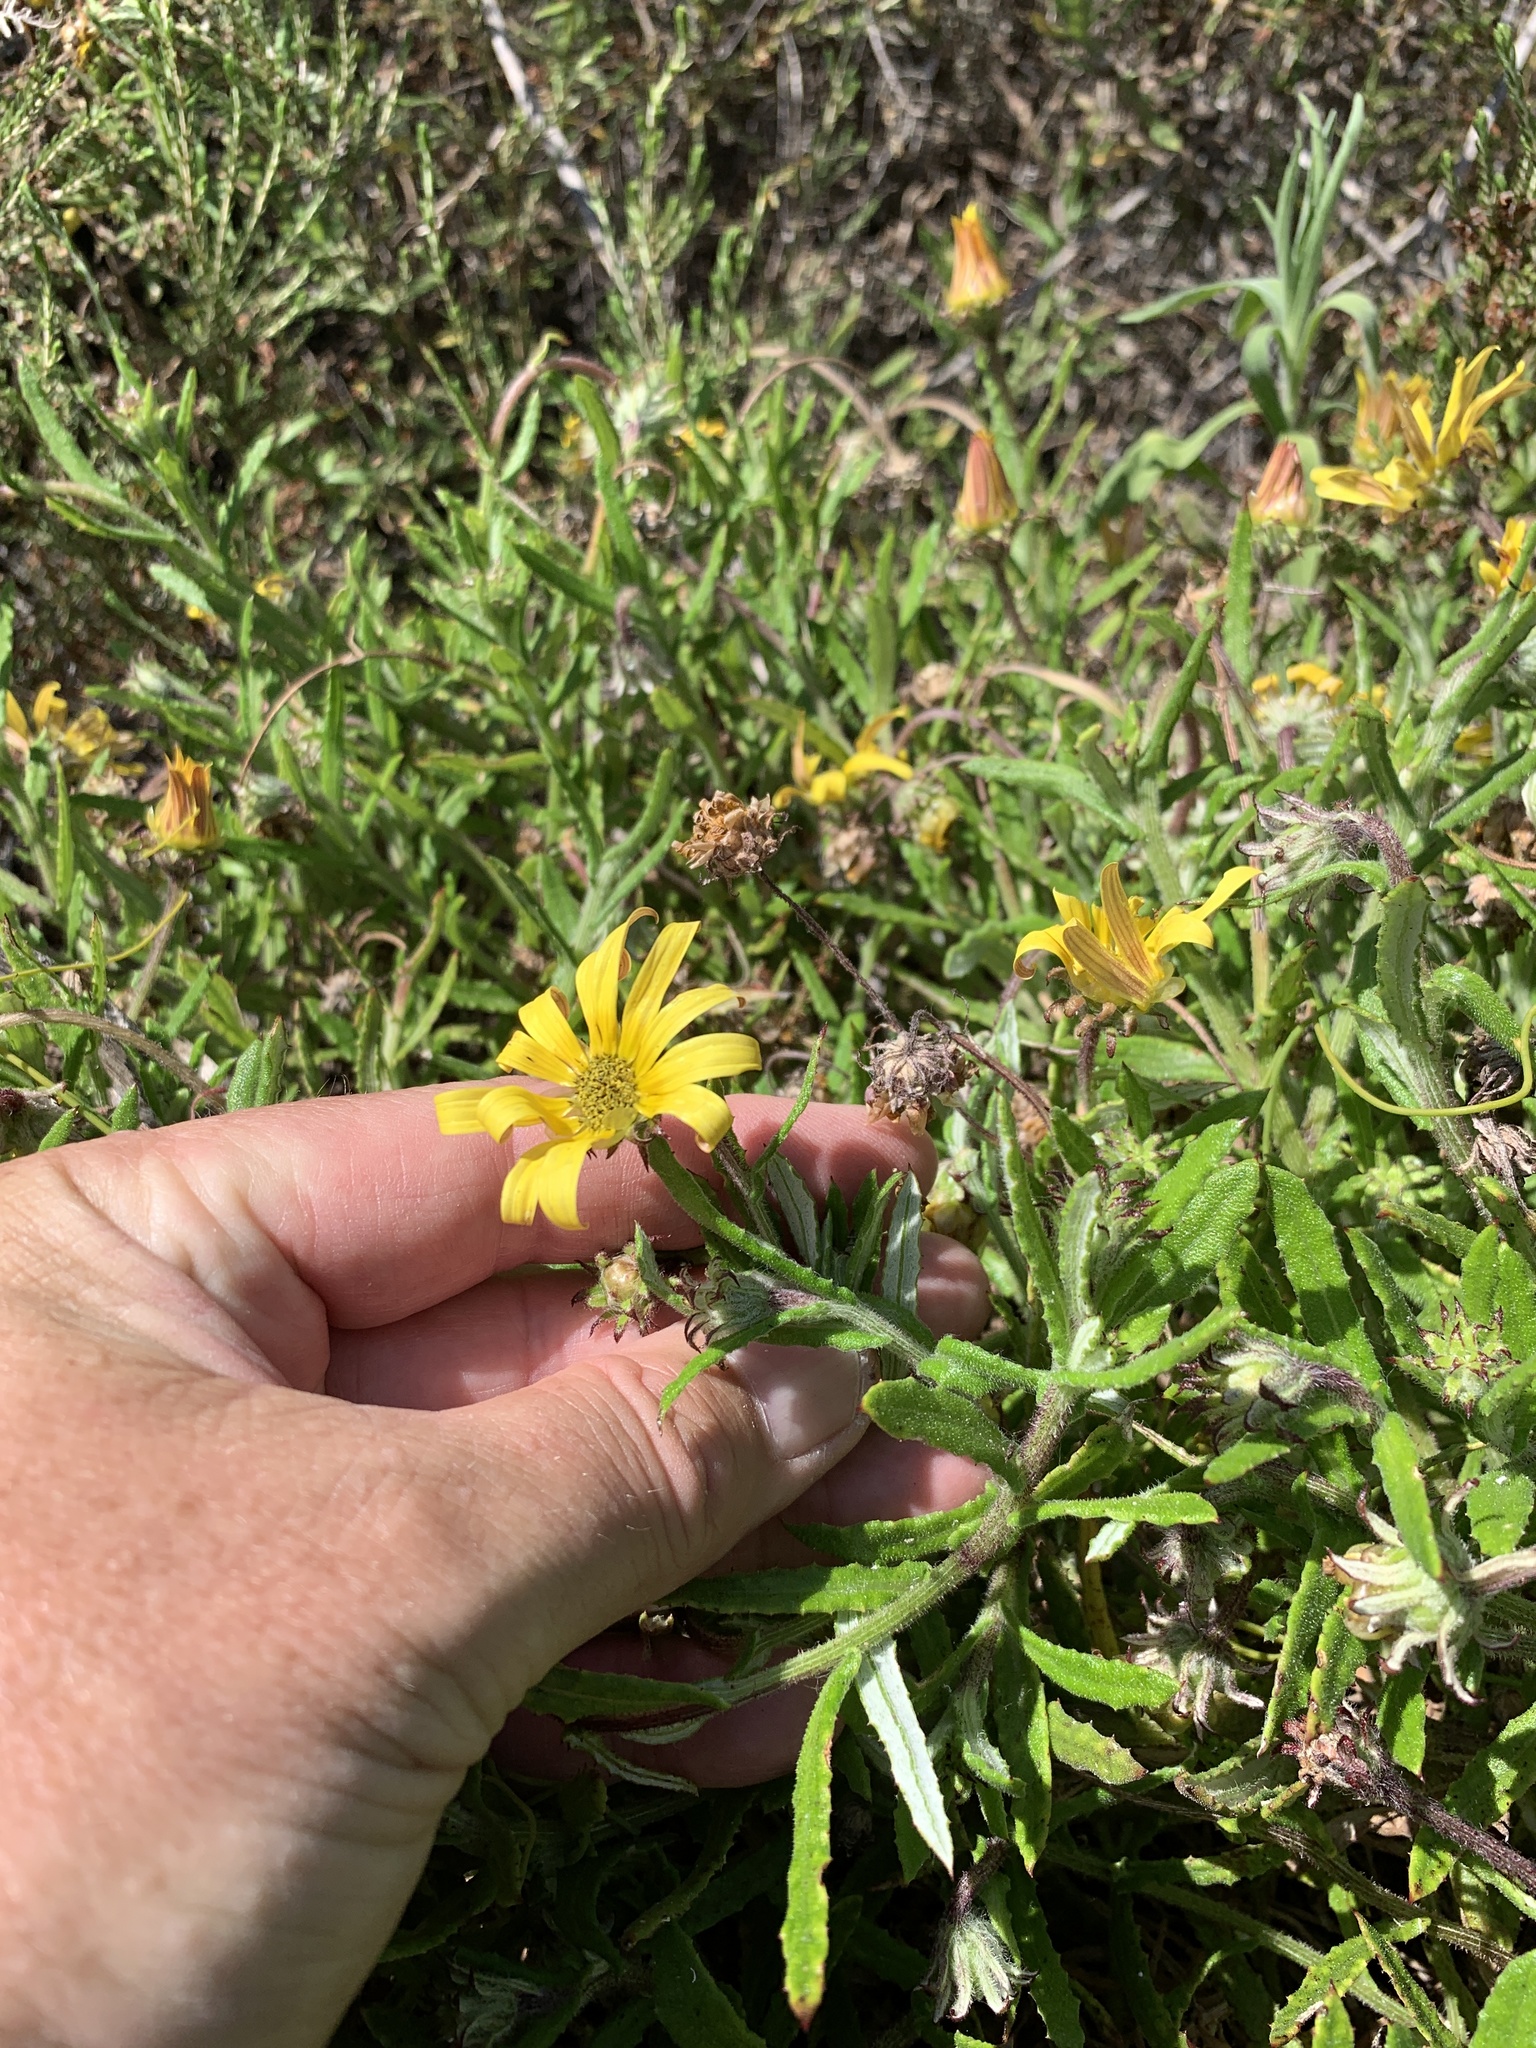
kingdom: Plantae
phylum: Tracheophyta
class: Magnoliopsida
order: Asterales
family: Asteraceae
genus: Arctotis
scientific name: Arctotis scabra
